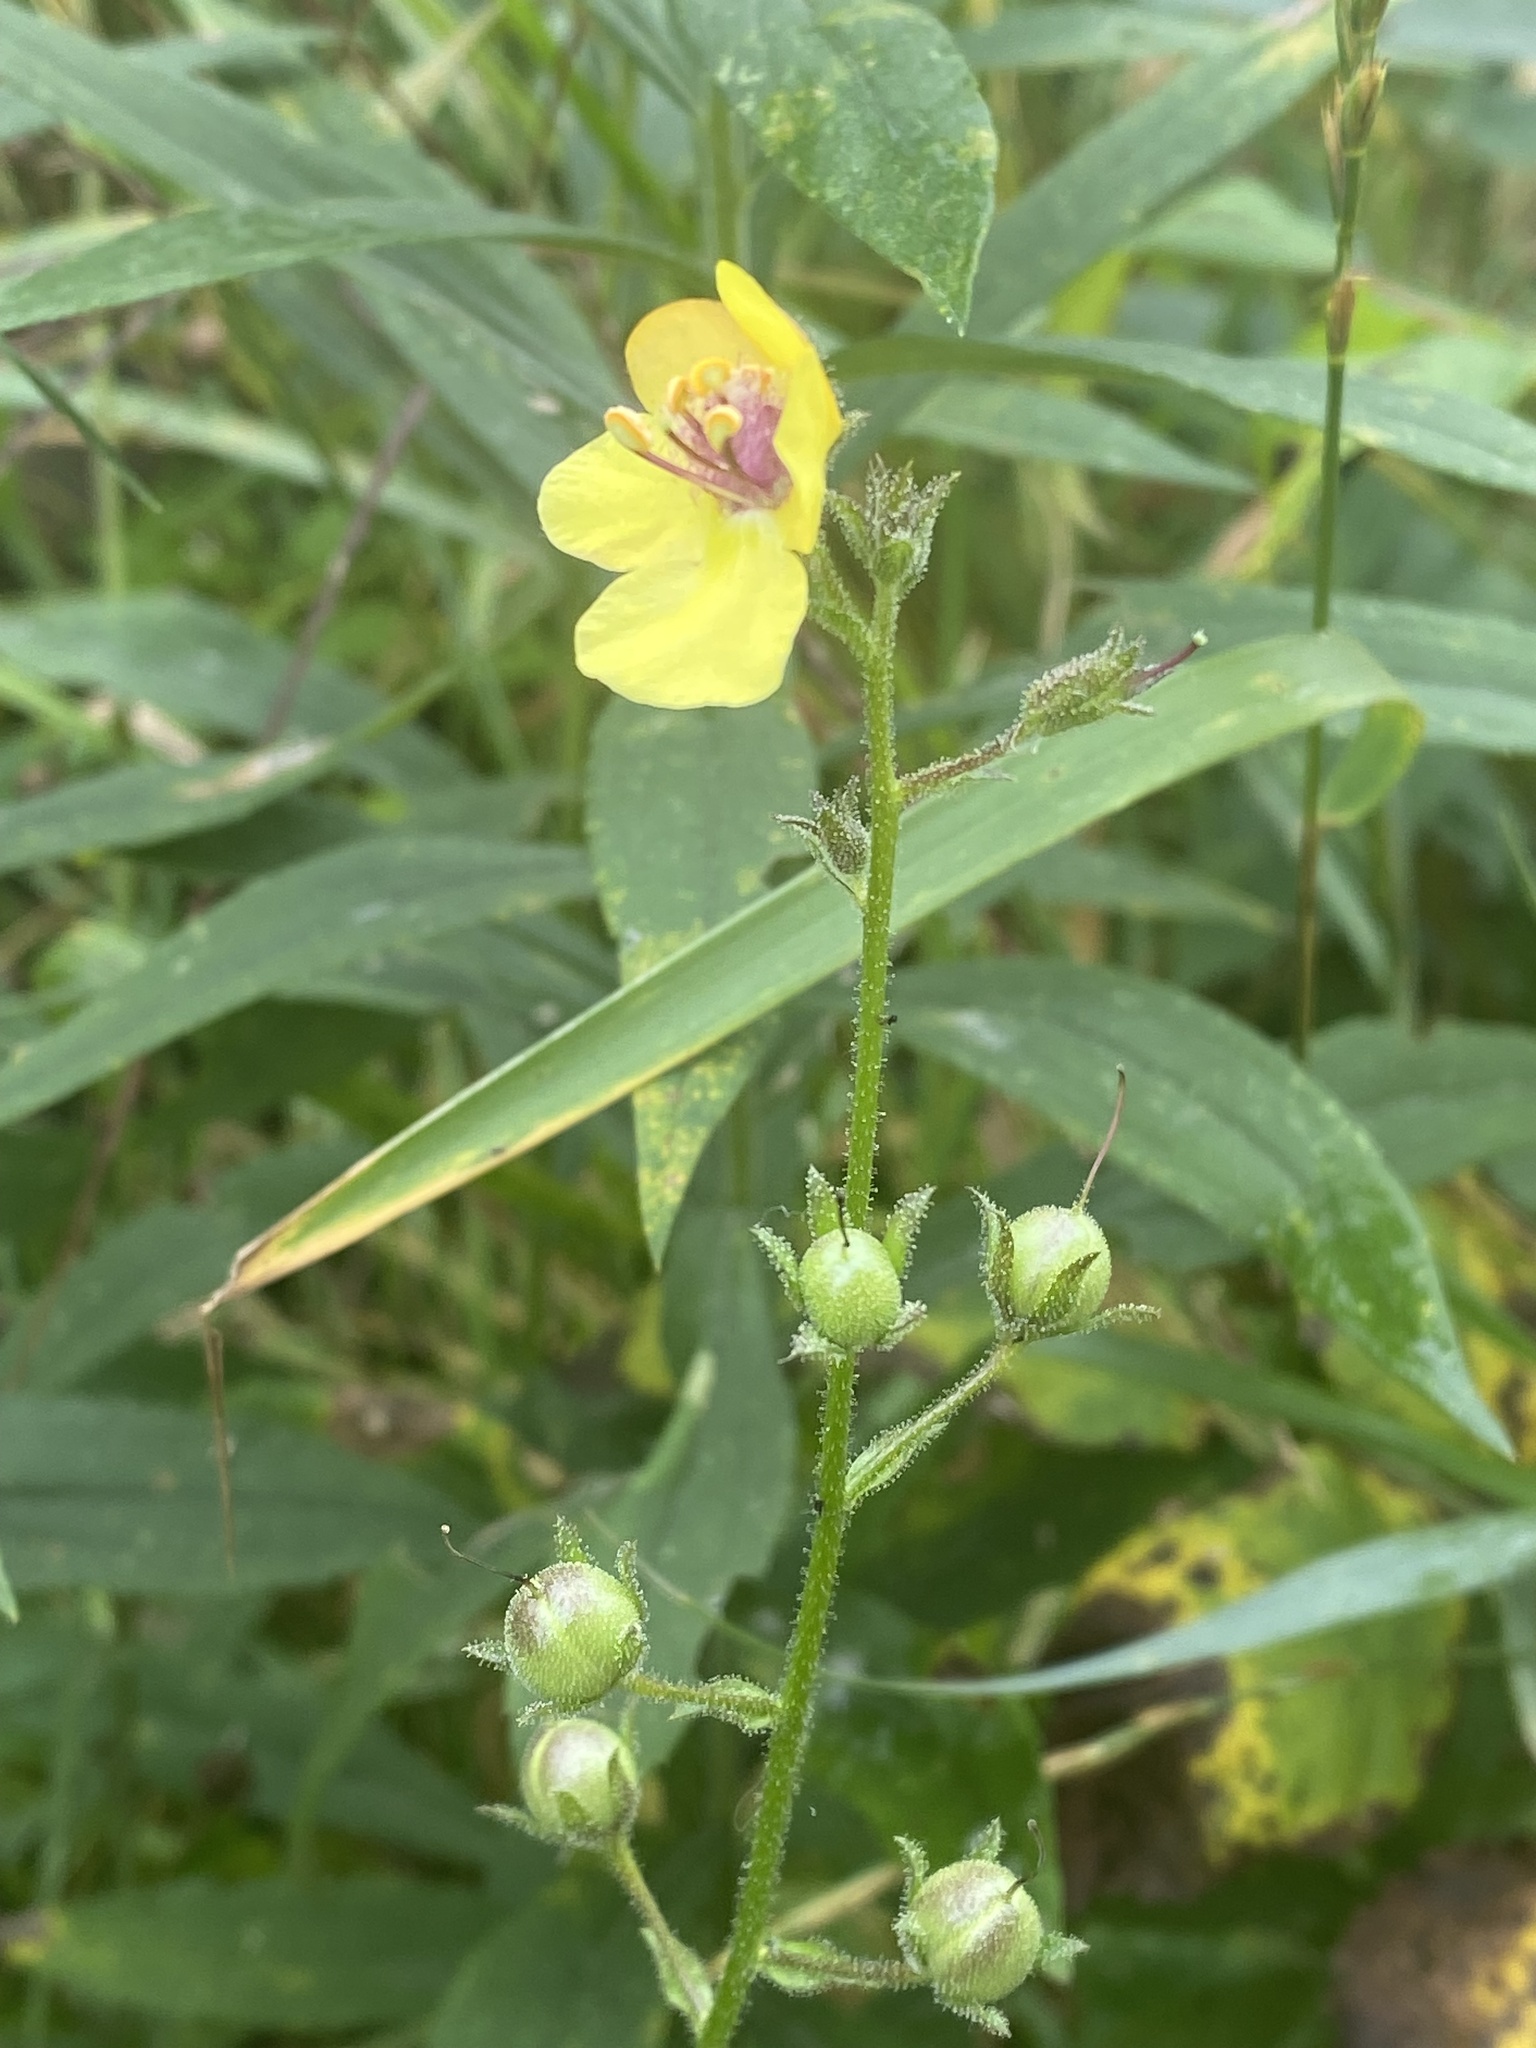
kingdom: Plantae
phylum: Tracheophyta
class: Magnoliopsida
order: Lamiales
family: Scrophulariaceae
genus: Verbascum
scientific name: Verbascum blattaria
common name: Moth mullein
